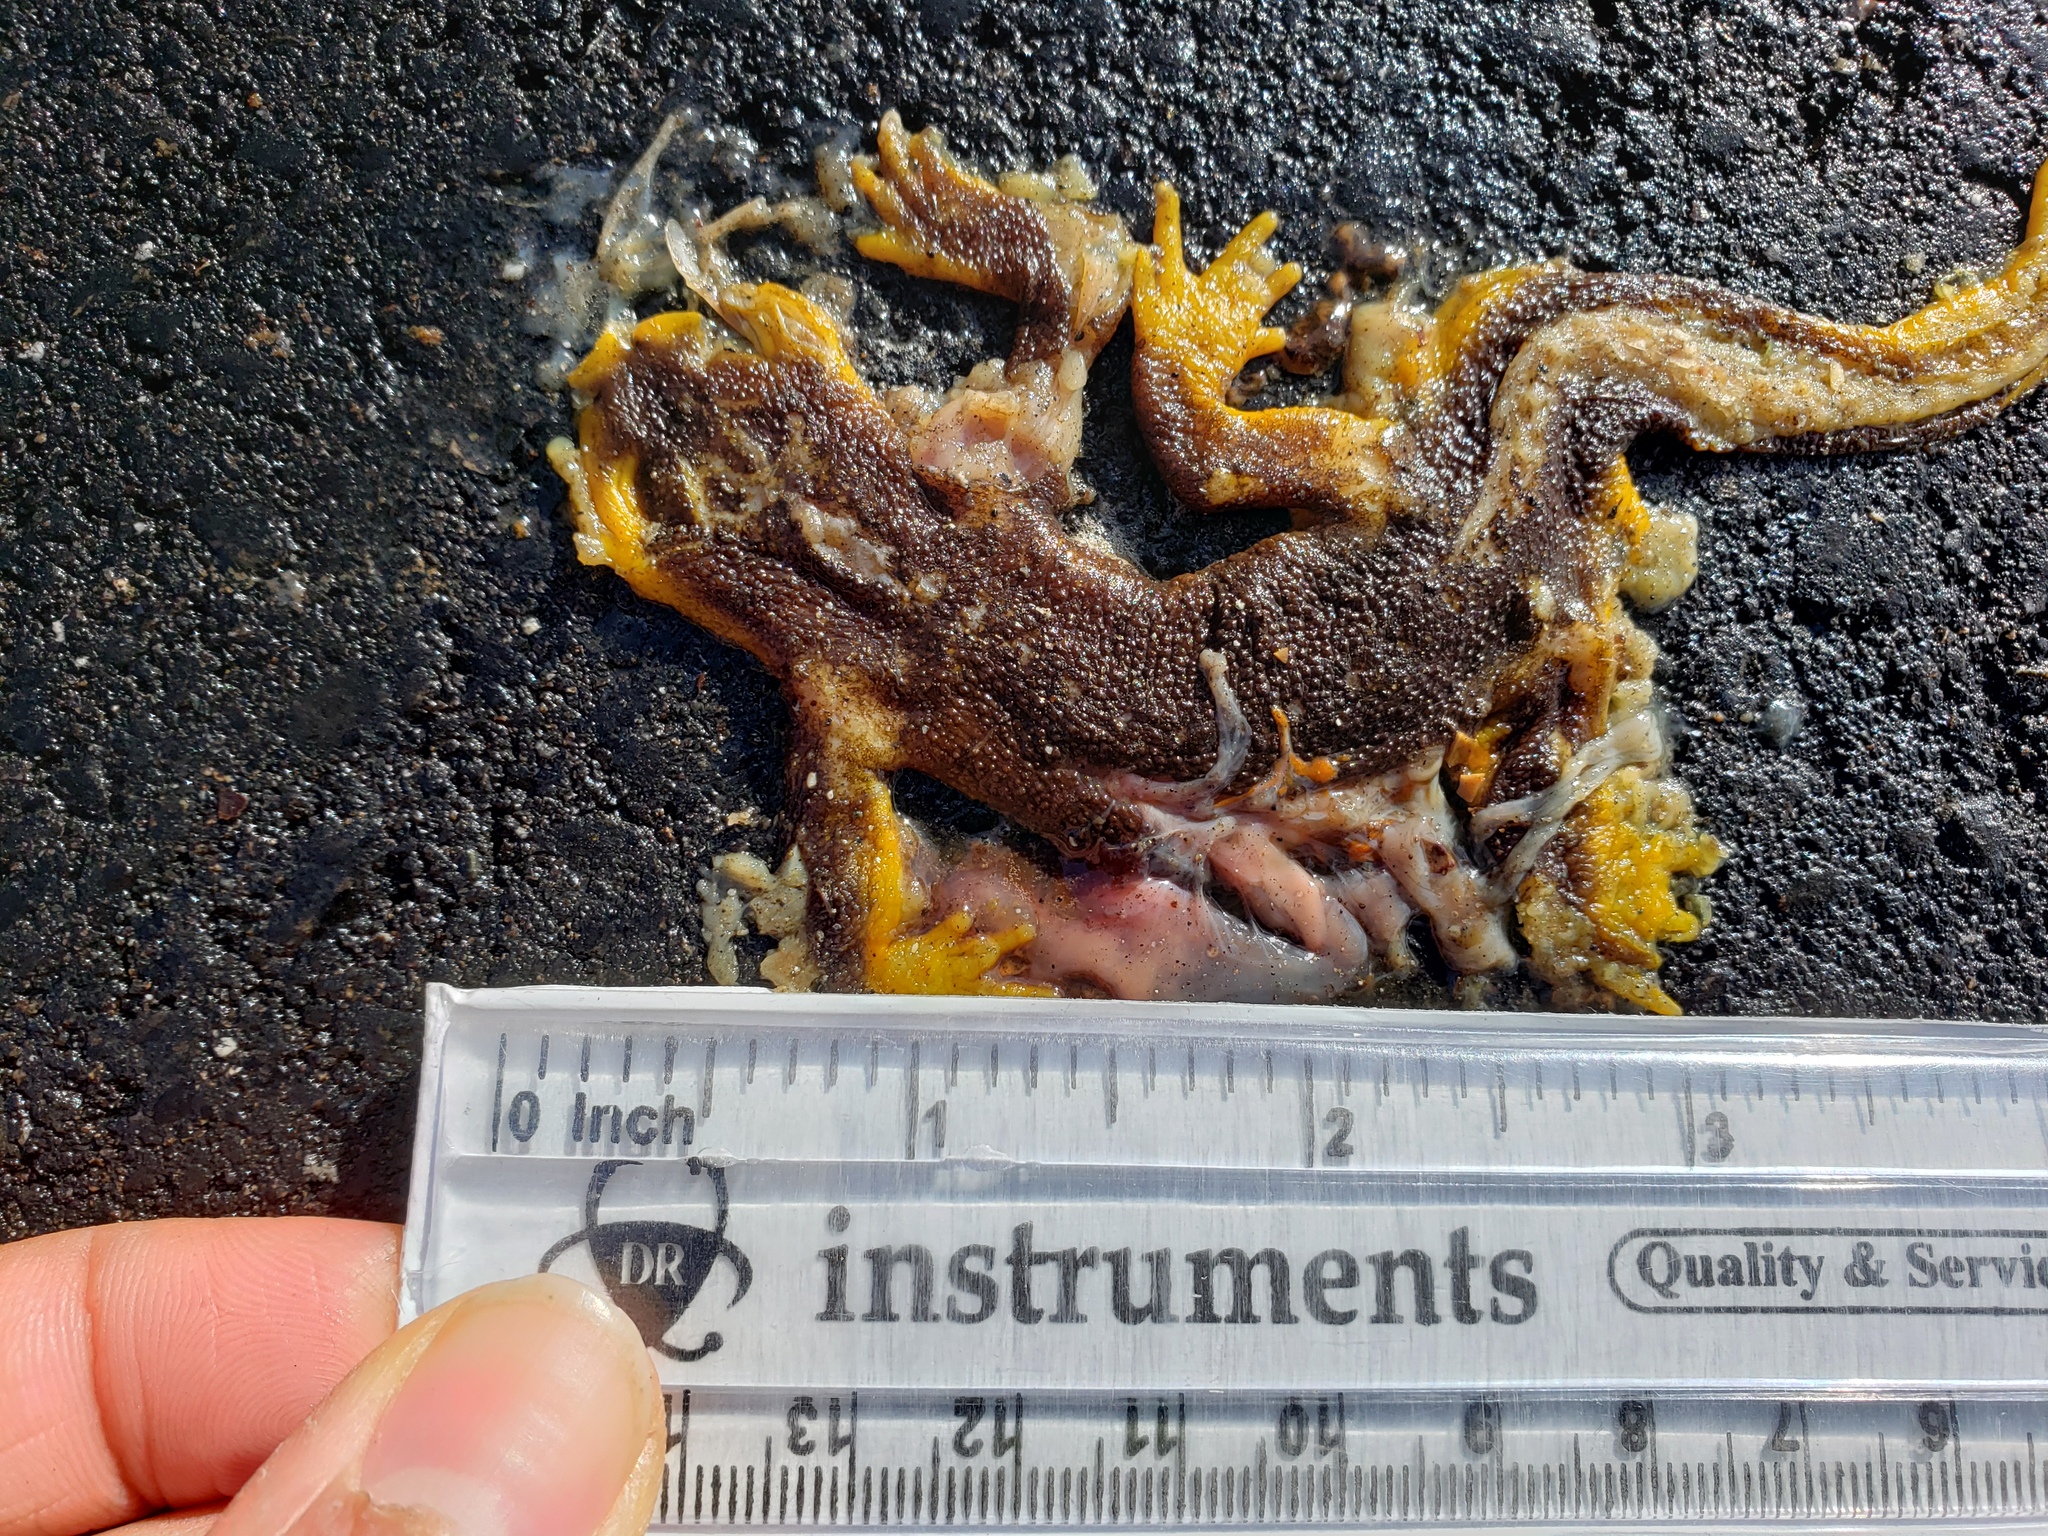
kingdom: Animalia
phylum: Chordata
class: Amphibia
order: Caudata
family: Salamandridae
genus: Taricha
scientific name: Taricha torosa
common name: California newt
